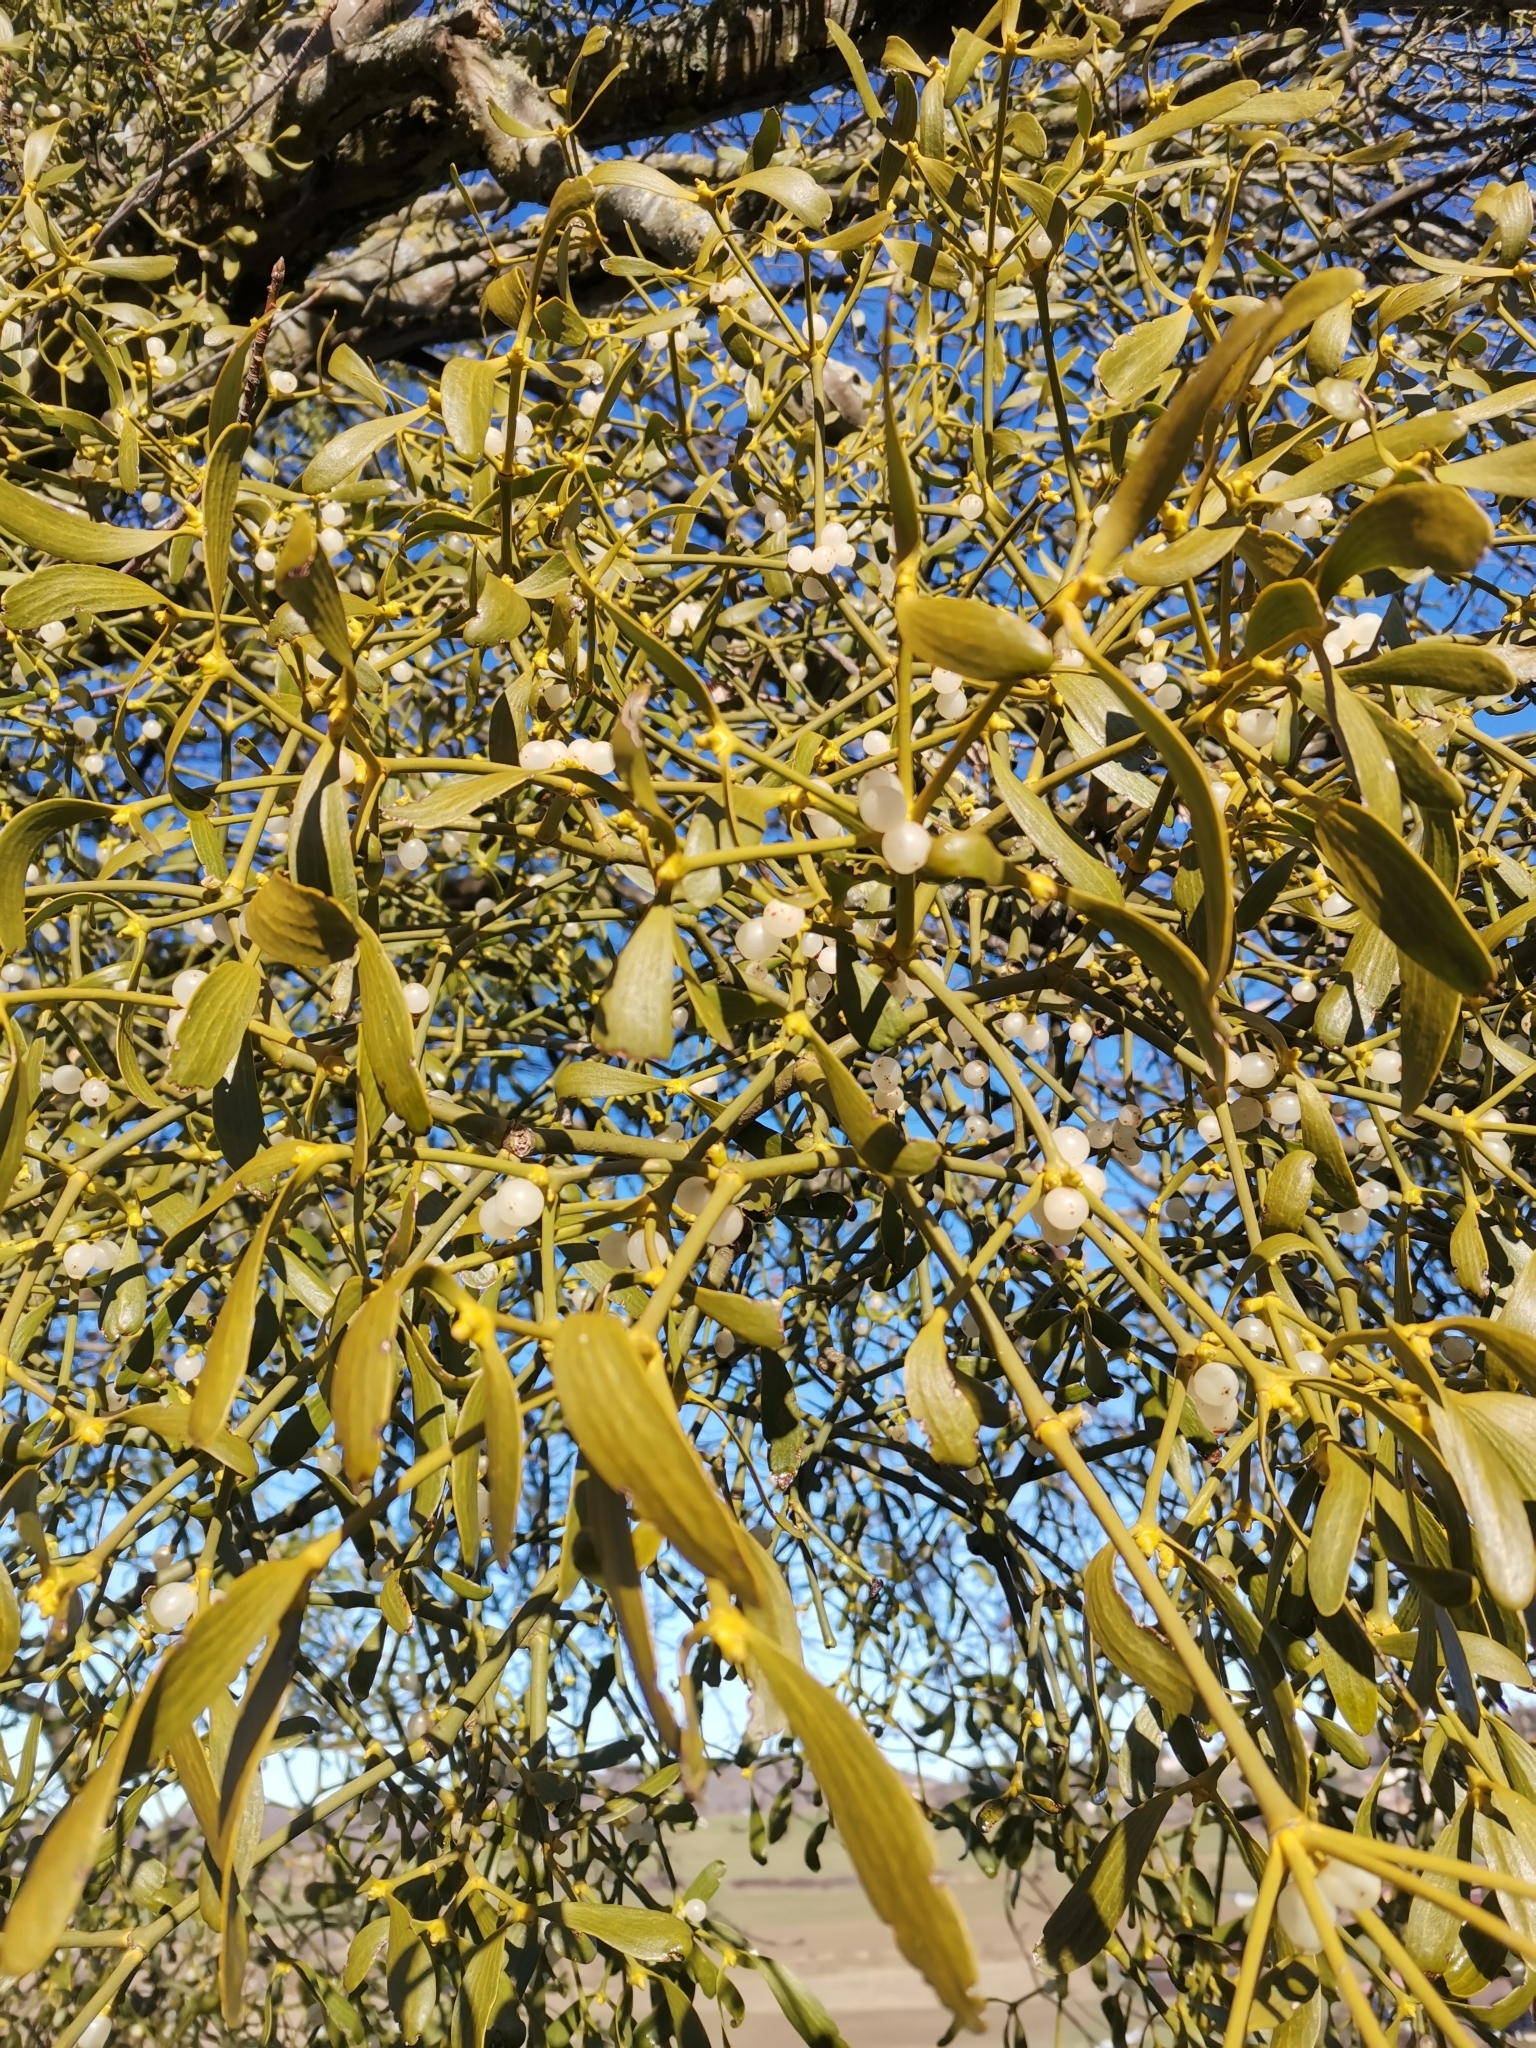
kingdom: Plantae
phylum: Tracheophyta
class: Magnoliopsida
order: Santalales
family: Viscaceae
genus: Viscum
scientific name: Viscum album
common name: Mistletoe
